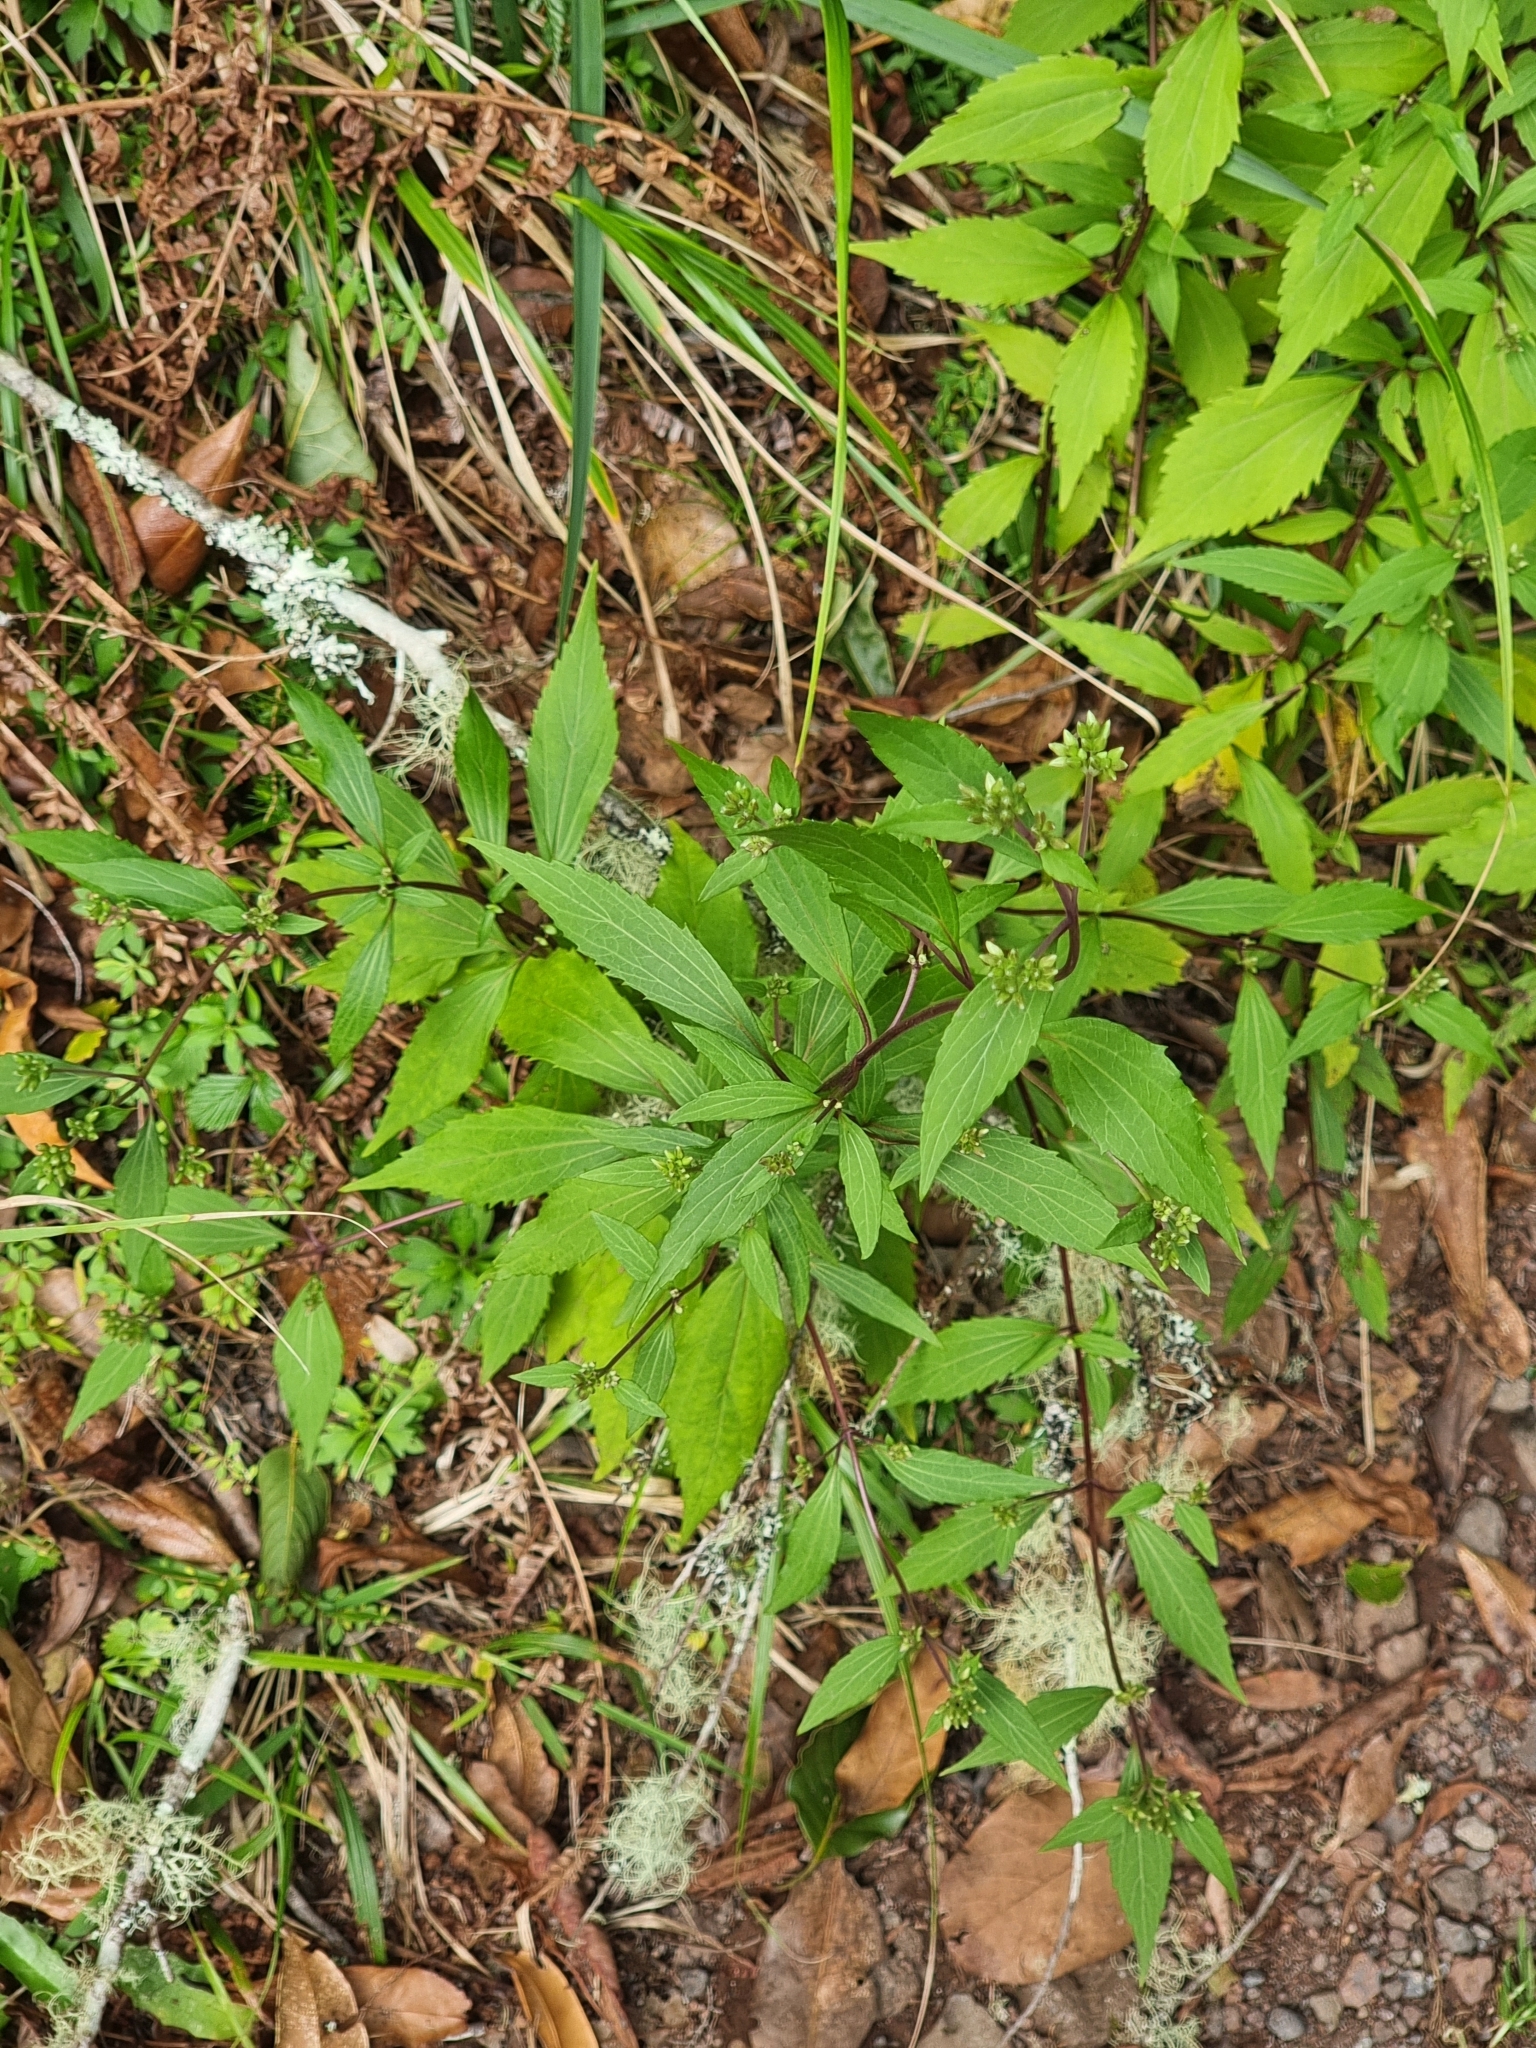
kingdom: Plantae
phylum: Tracheophyta
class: Magnoliopsida
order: Asterales
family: Asteraceae
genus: Ageratina
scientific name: Ageratina riparia
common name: Creeping croftonweed
